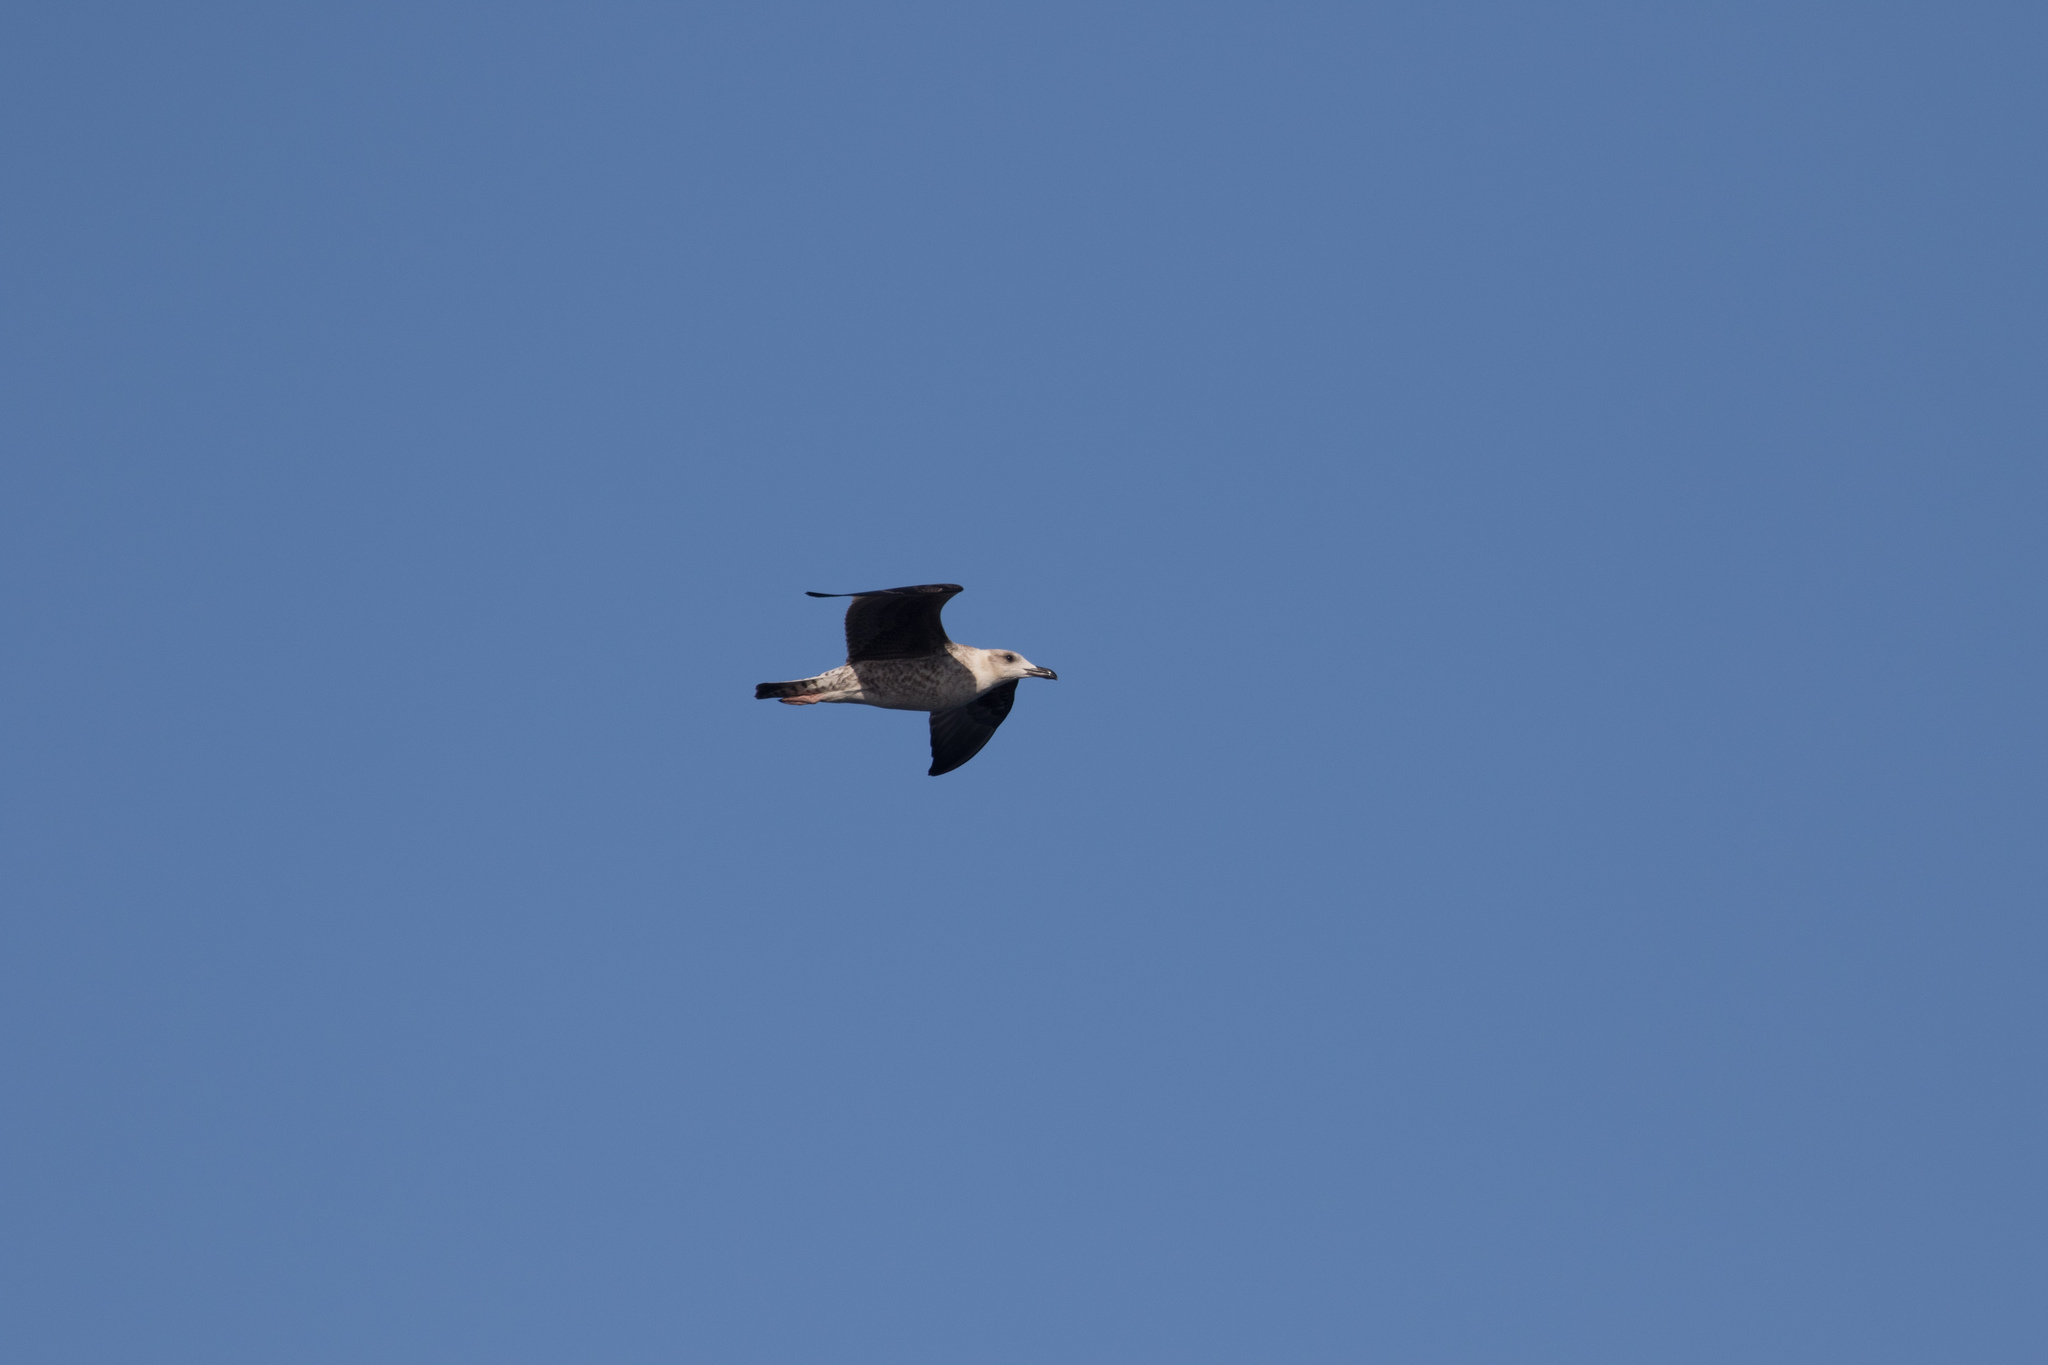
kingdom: Animalia
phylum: Chordata
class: Aves
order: Charadriiformes
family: Laridae
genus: Larus
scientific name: Larus michahellis
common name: Yellow-legged gull
